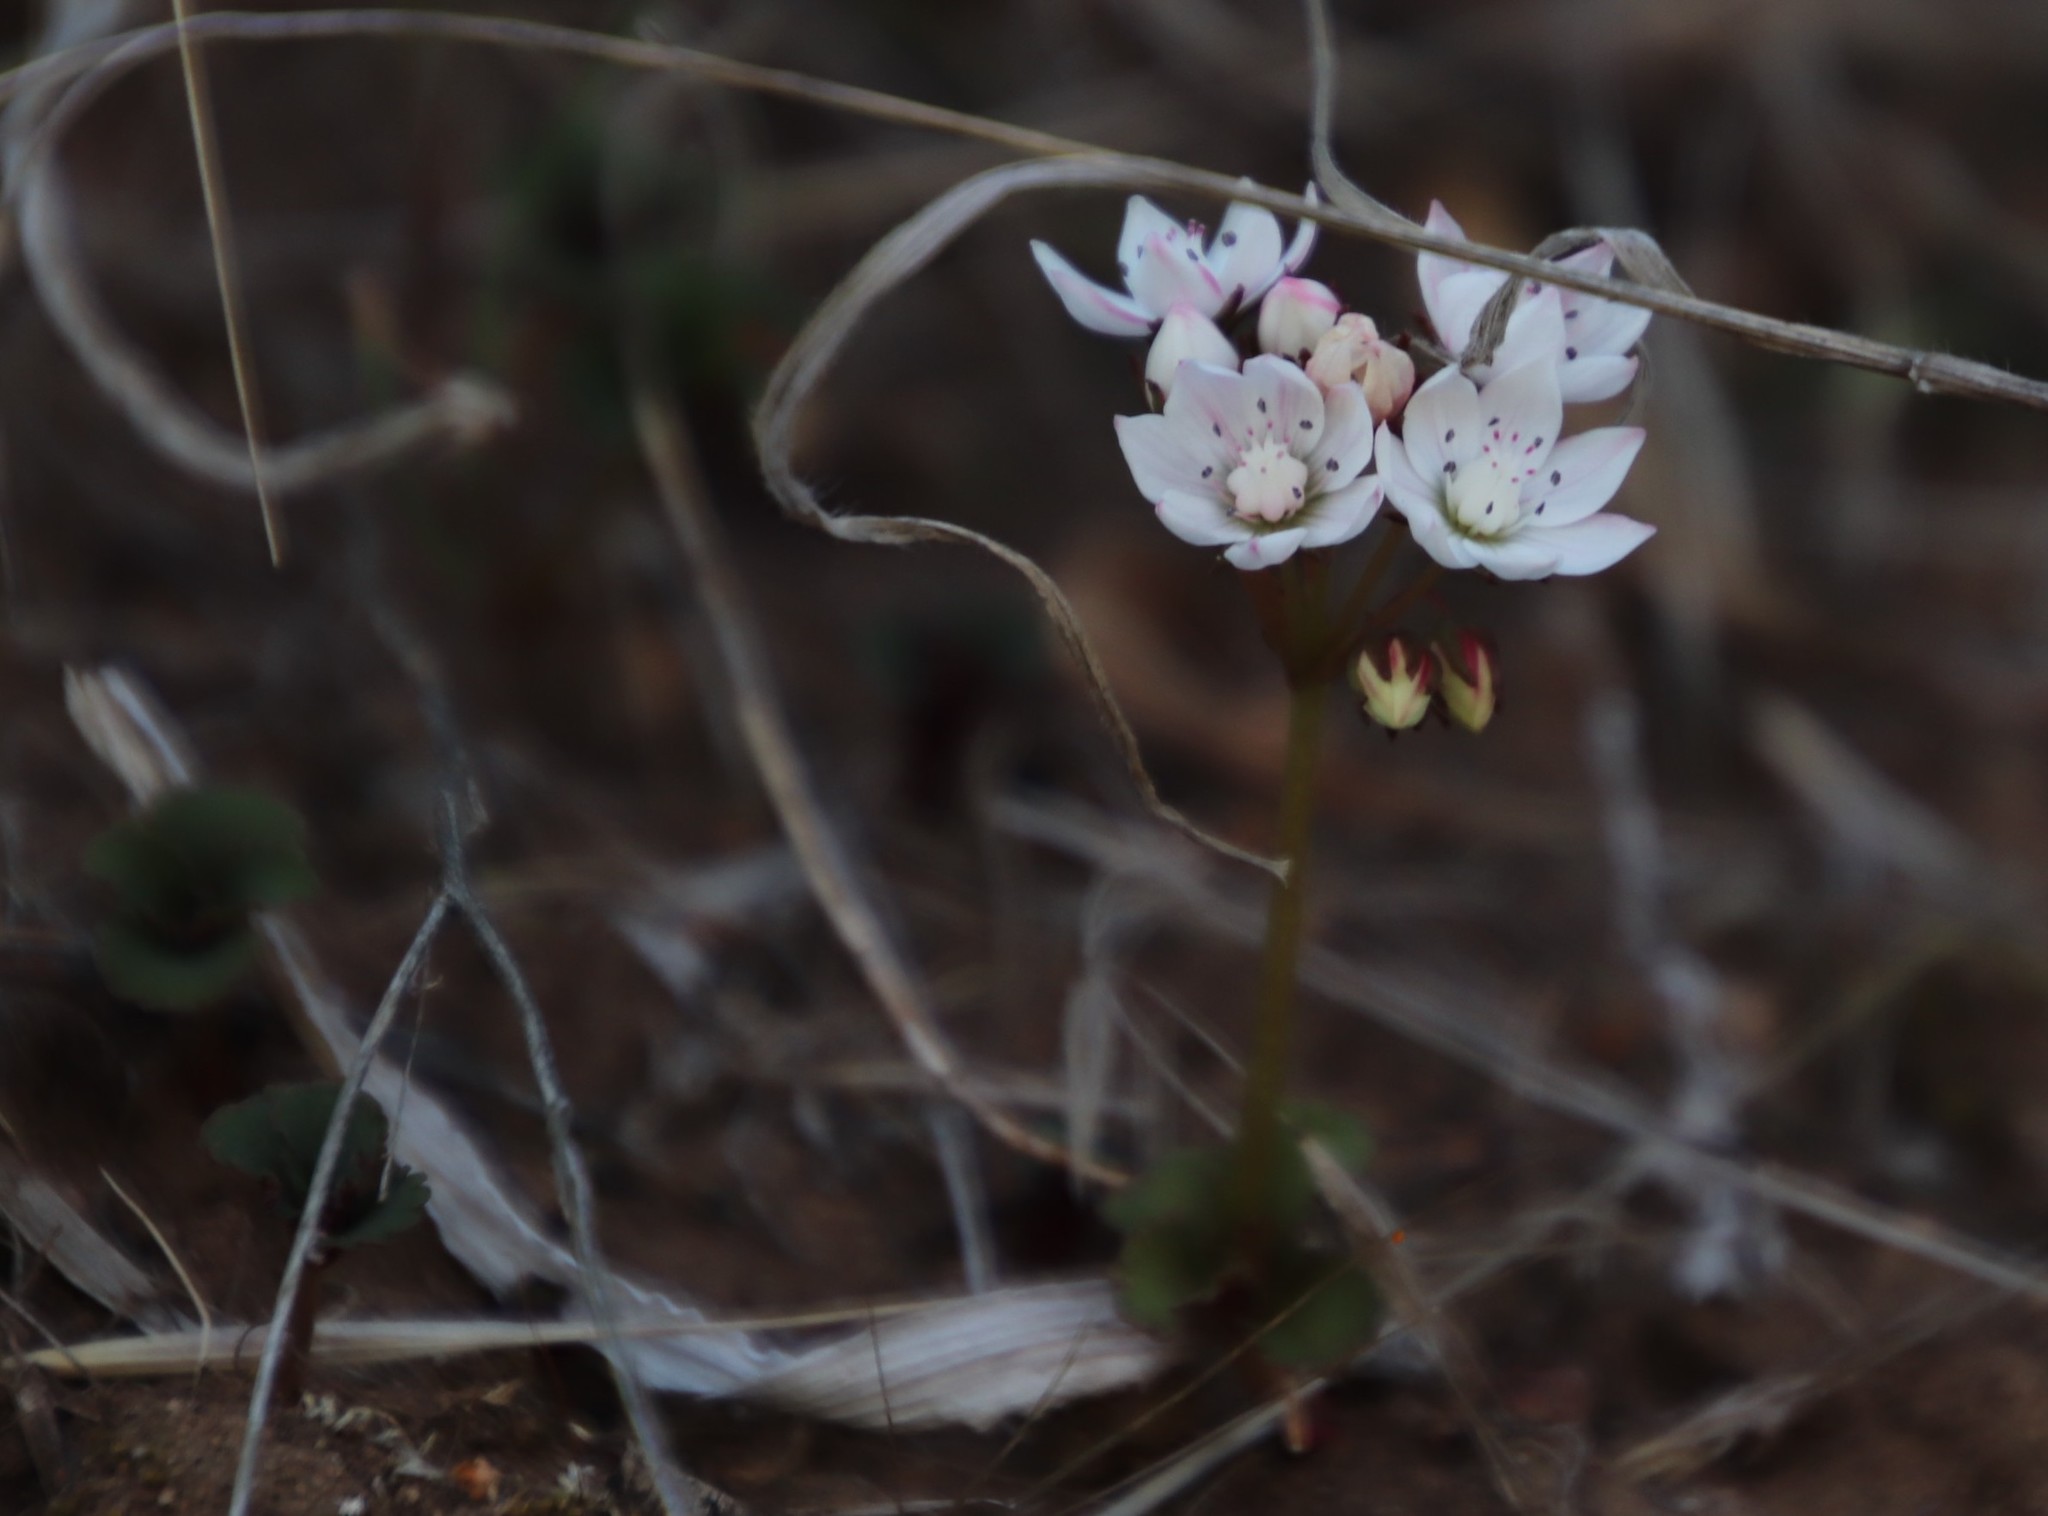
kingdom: Plantae
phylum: Tracheophyta
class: Magnoliopsida
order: Saxifragales
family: Crassulaceae
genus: Crassula
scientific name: Crassula capensis
